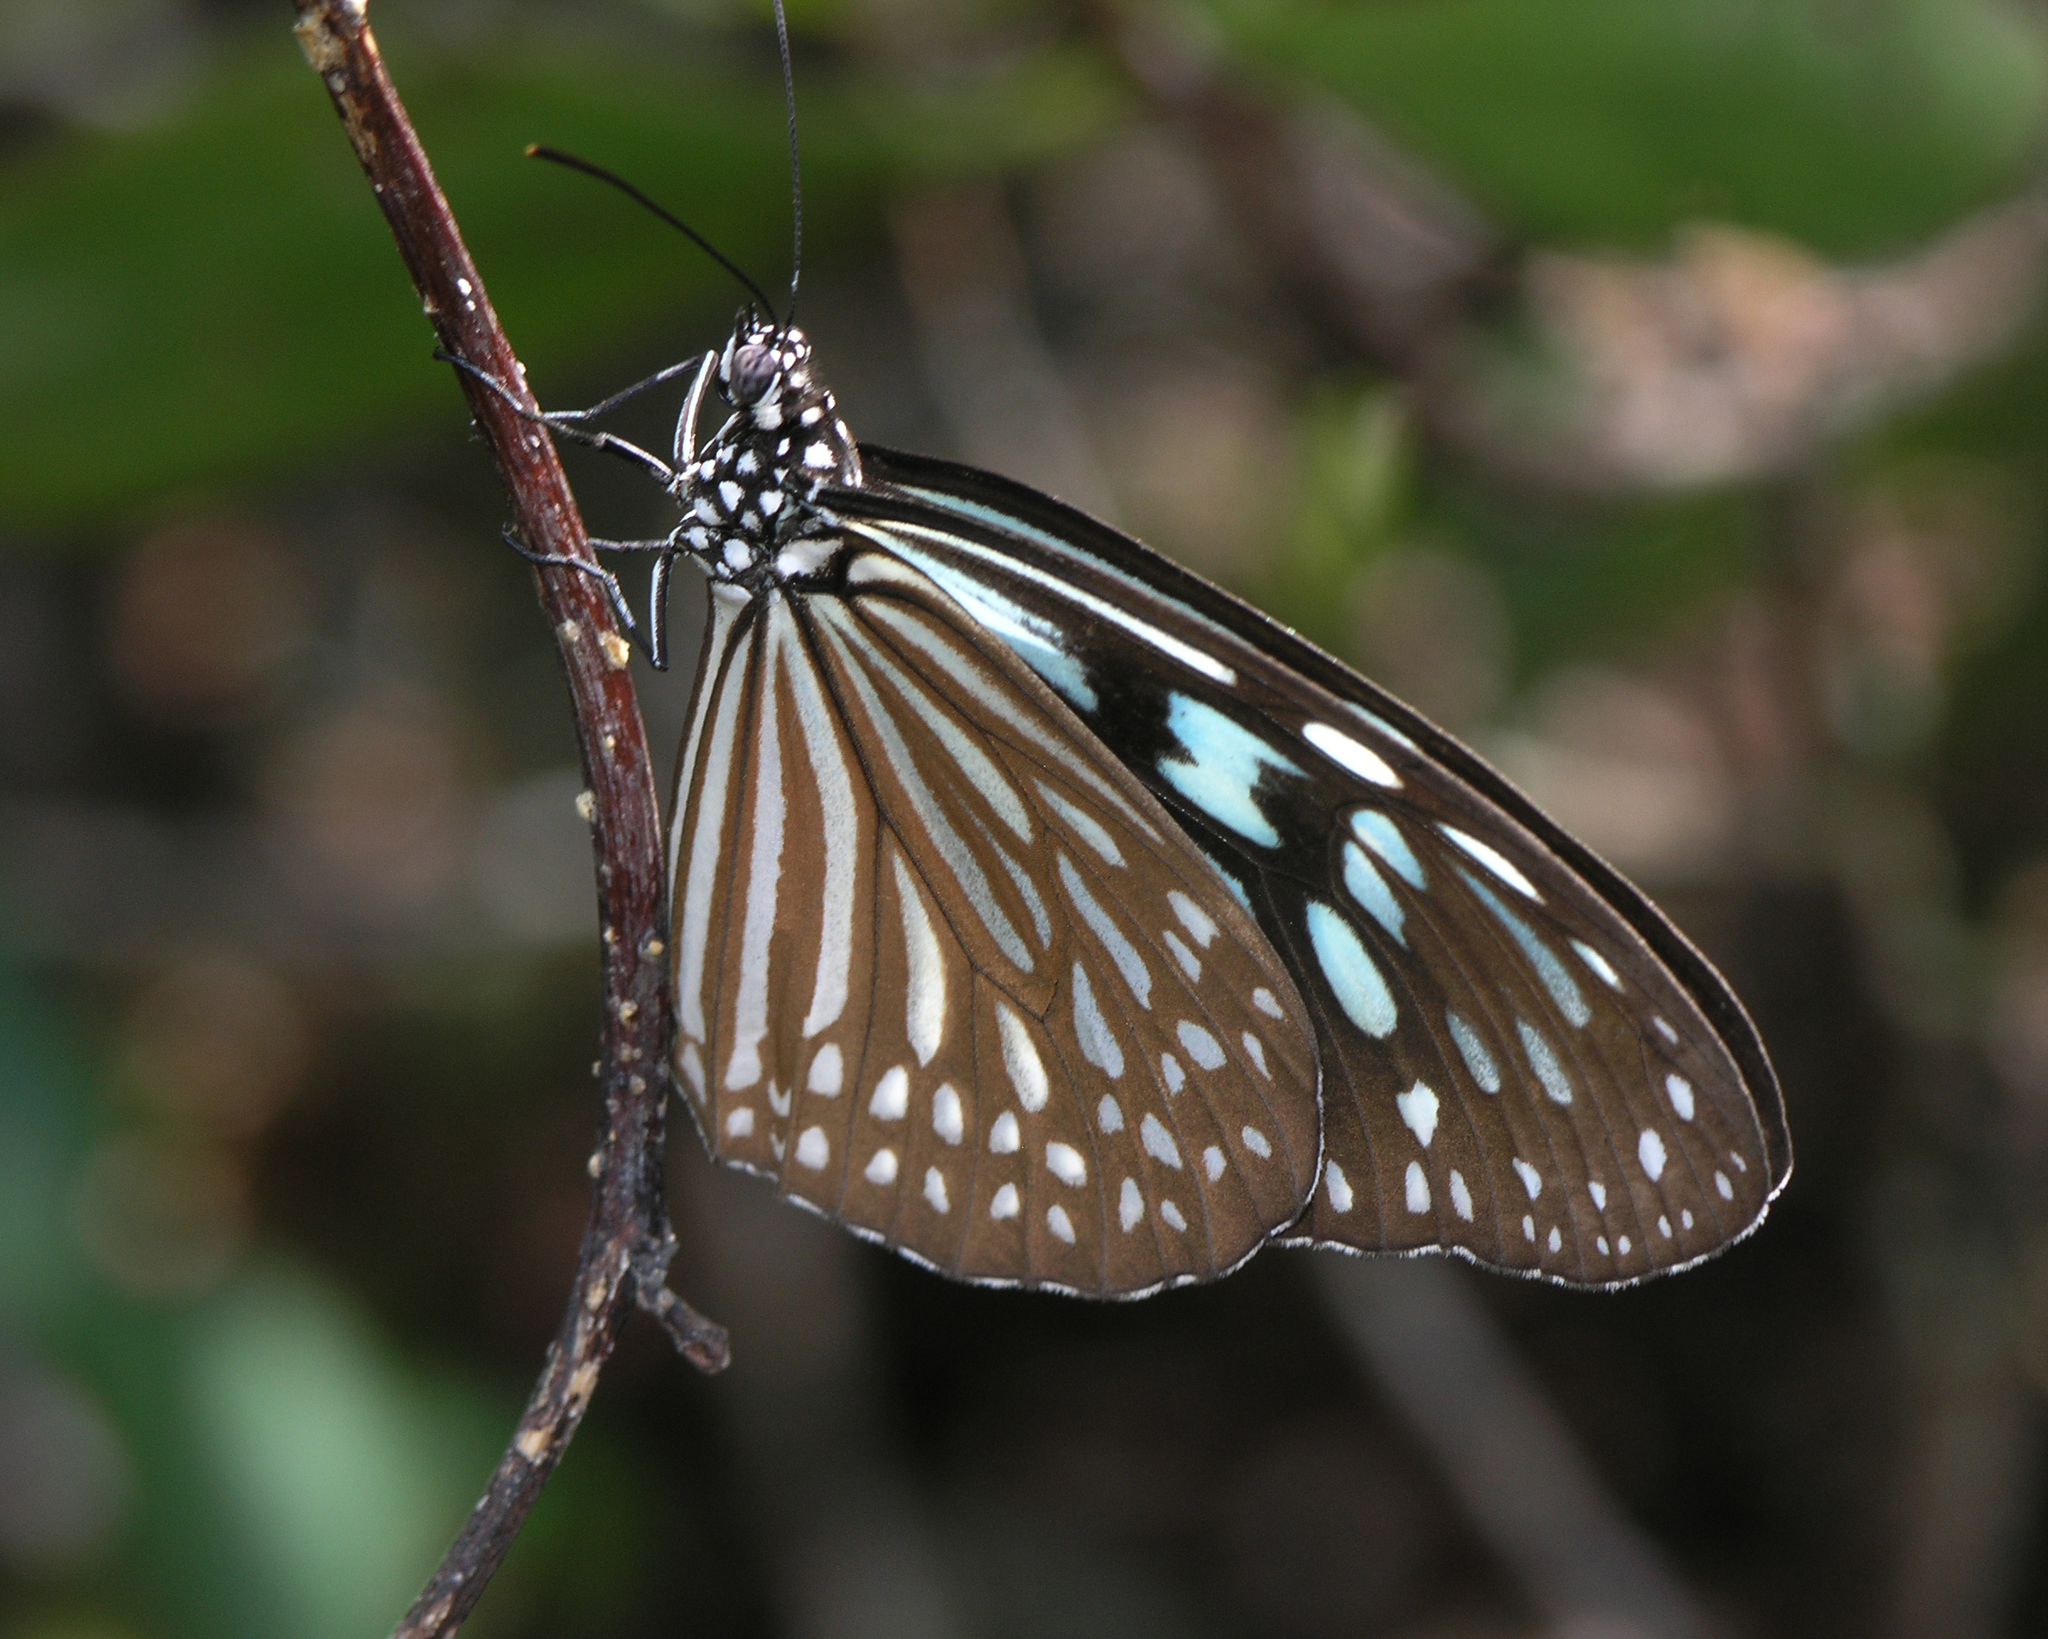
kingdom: Animalia
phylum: Arthropoda
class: Insecta
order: Lepidoptera
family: Nymphalidae
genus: Ideopsis
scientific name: Ideopsis vulgaris
